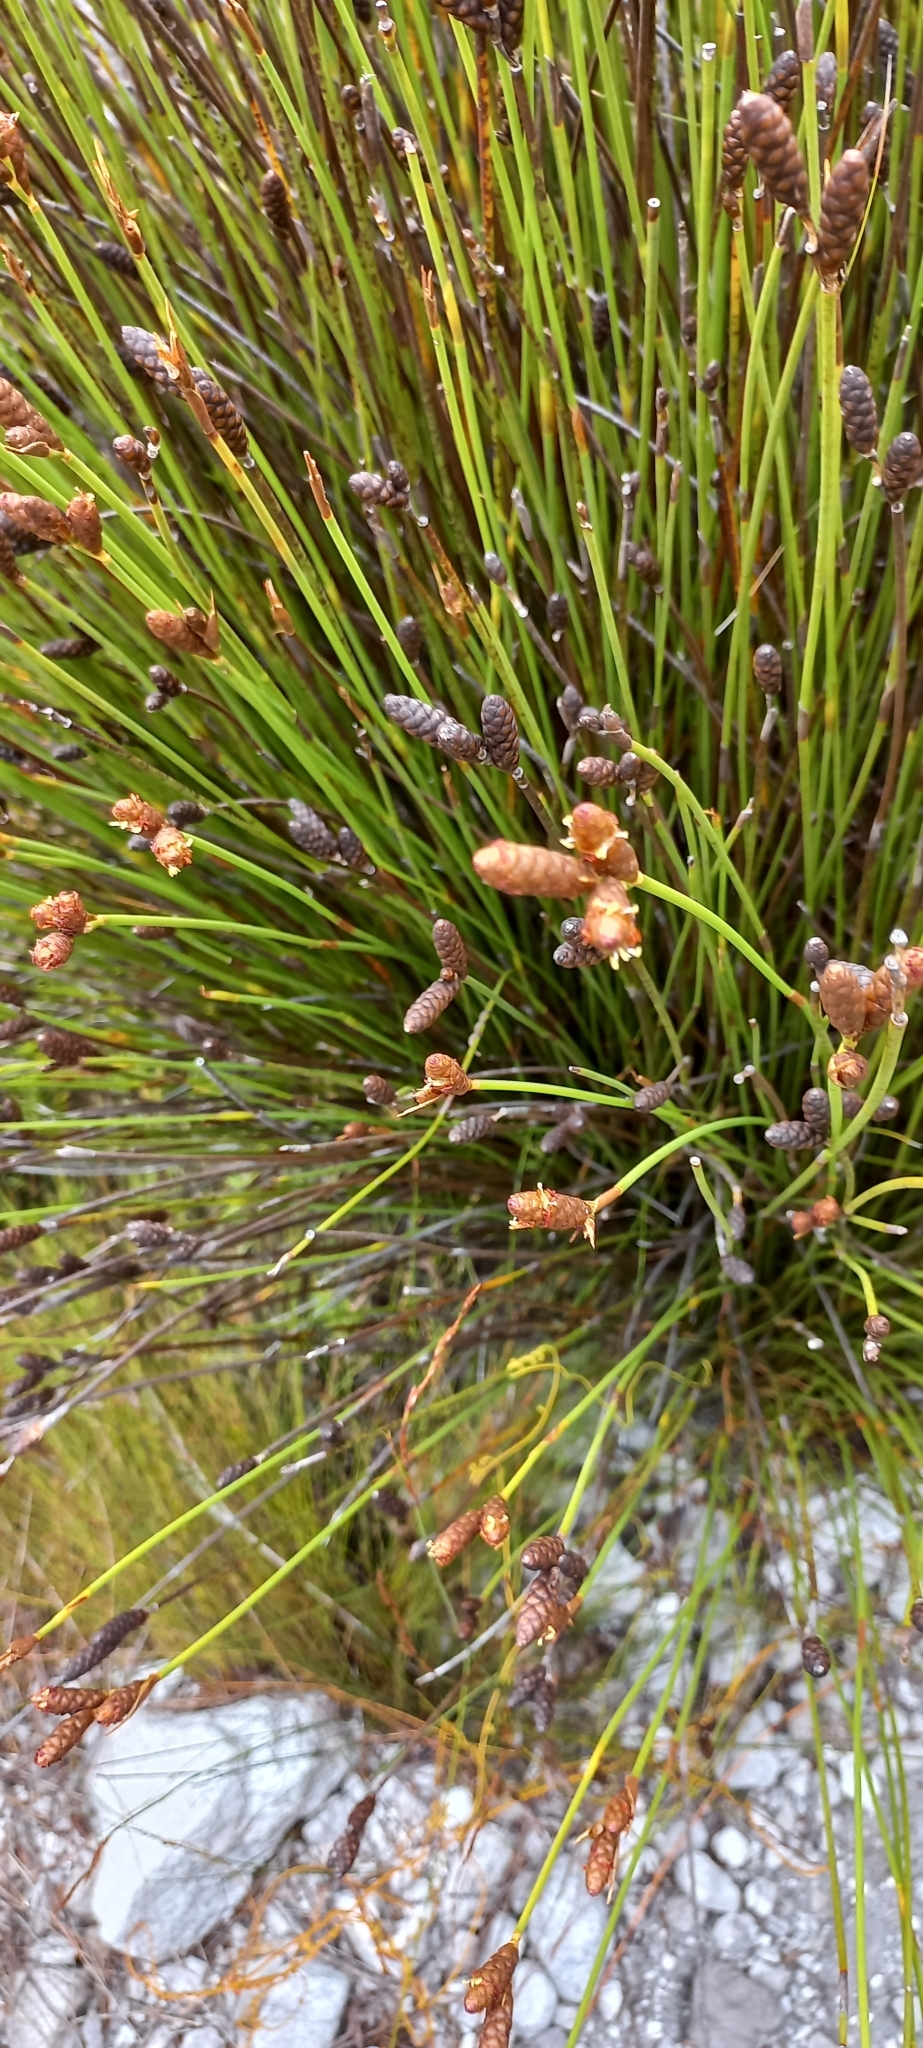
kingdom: Plantae
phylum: Tracheophyta
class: Liliopsida
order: Poales
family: Restionaceae
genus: Nevillea
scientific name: Nevillea obtusissimus
